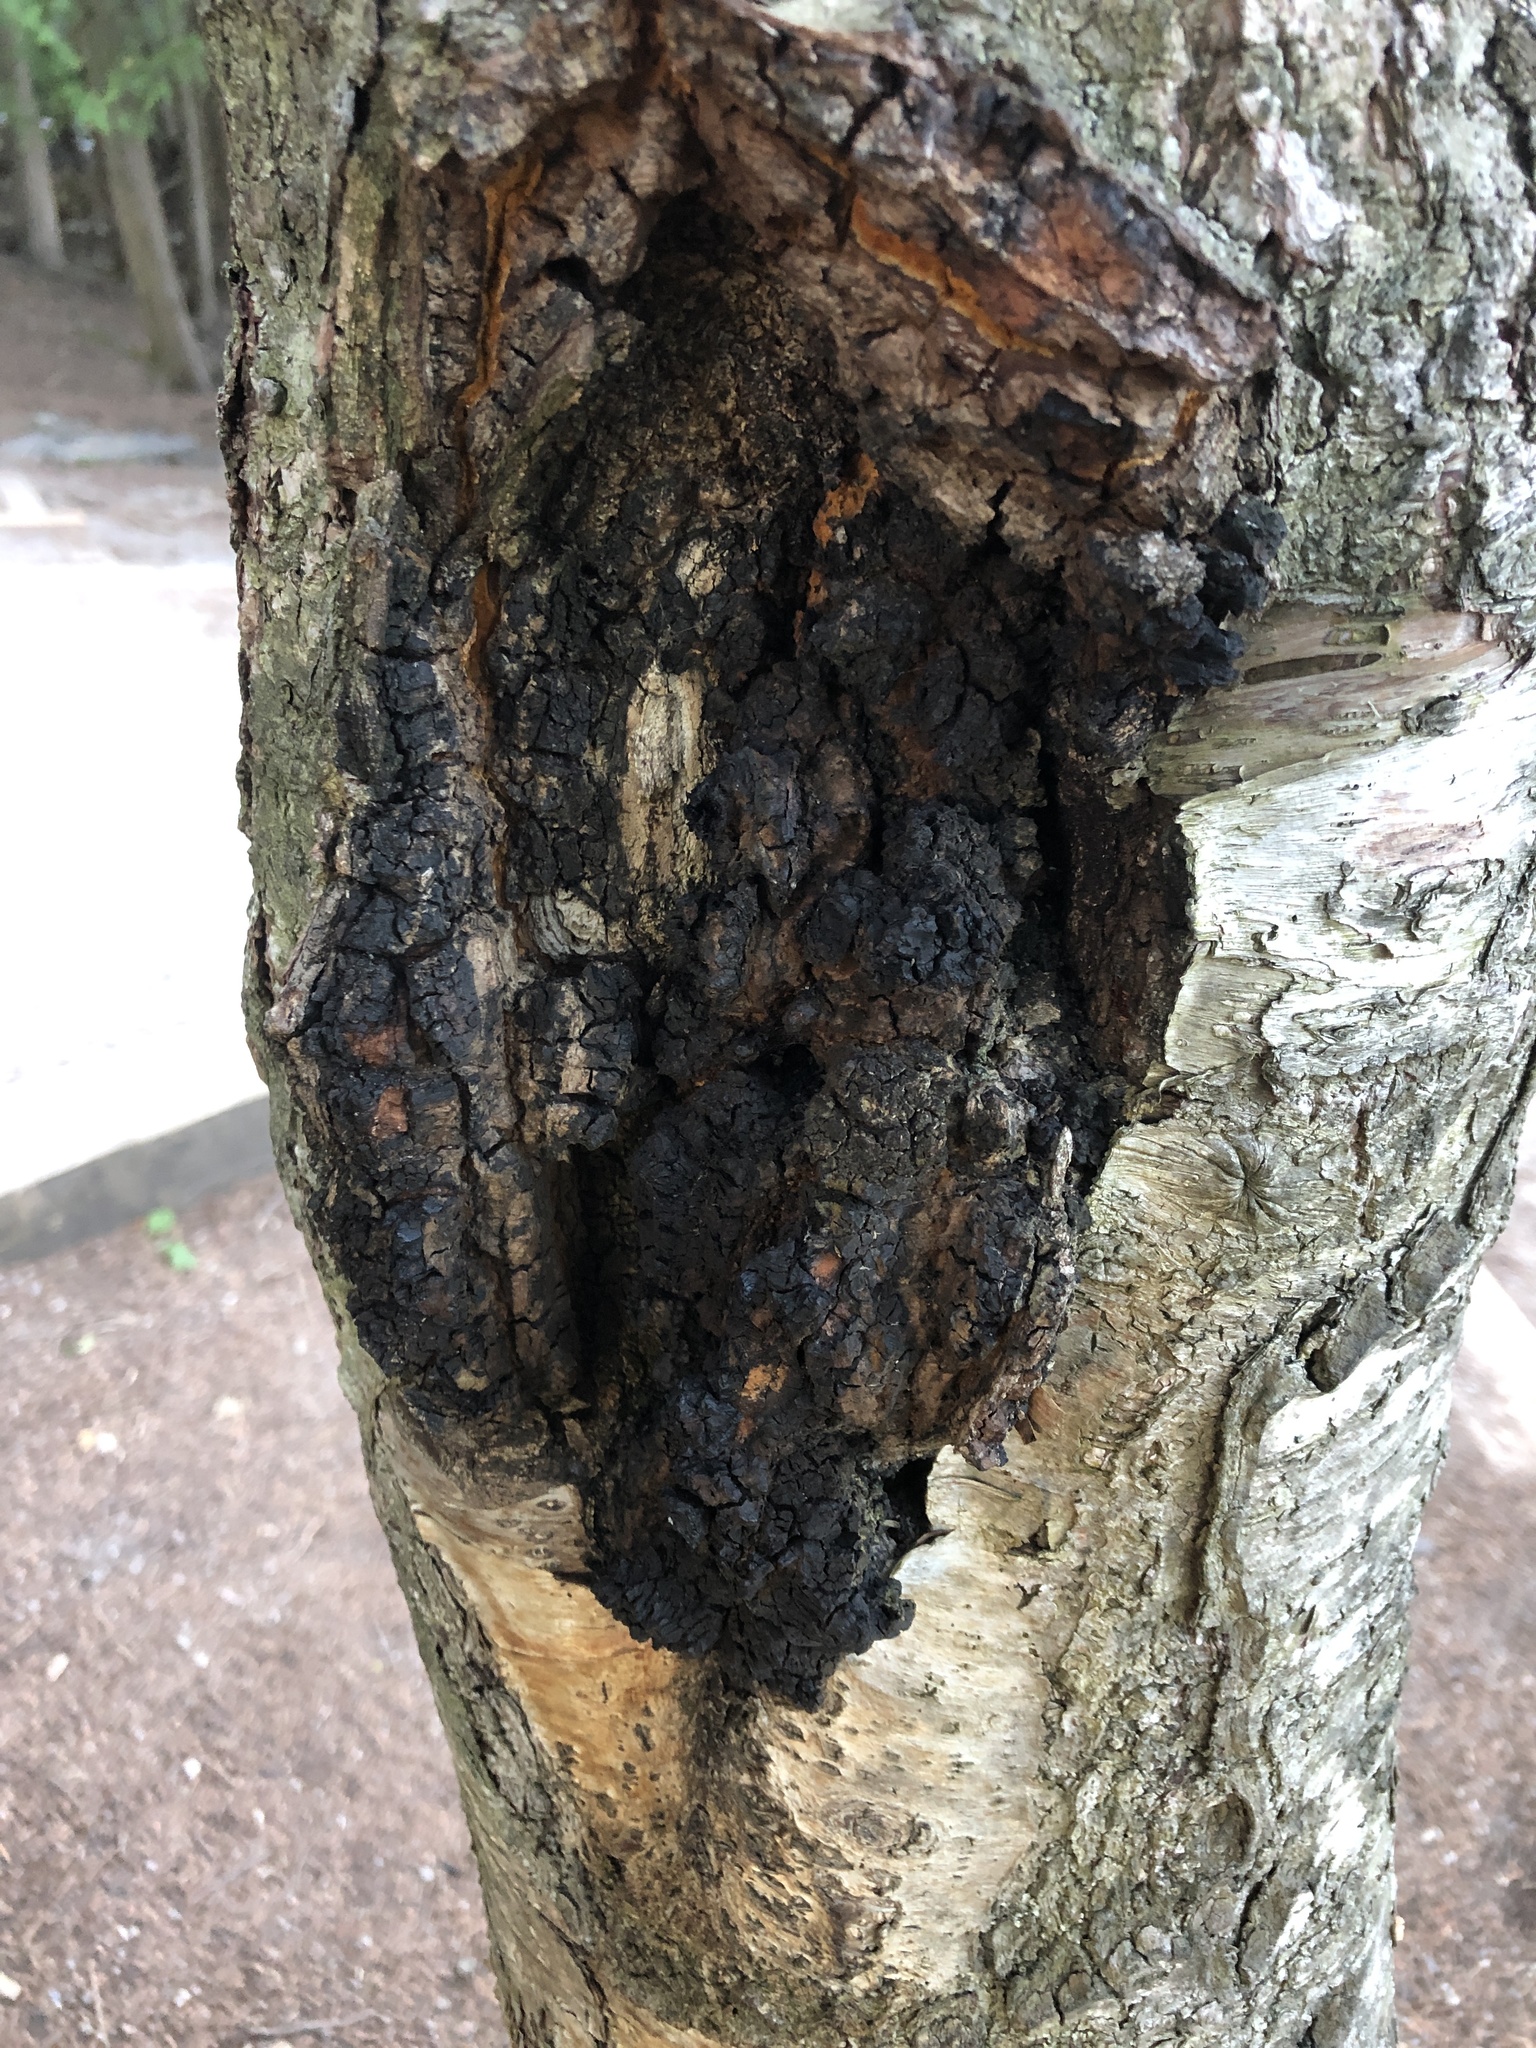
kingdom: Fungi
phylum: Basidiomycota
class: Agaricomycetes
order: Hymenochaetales
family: Hymenochaetaceae
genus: Inonotus
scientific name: Inonotus obliquus
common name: Chaga
